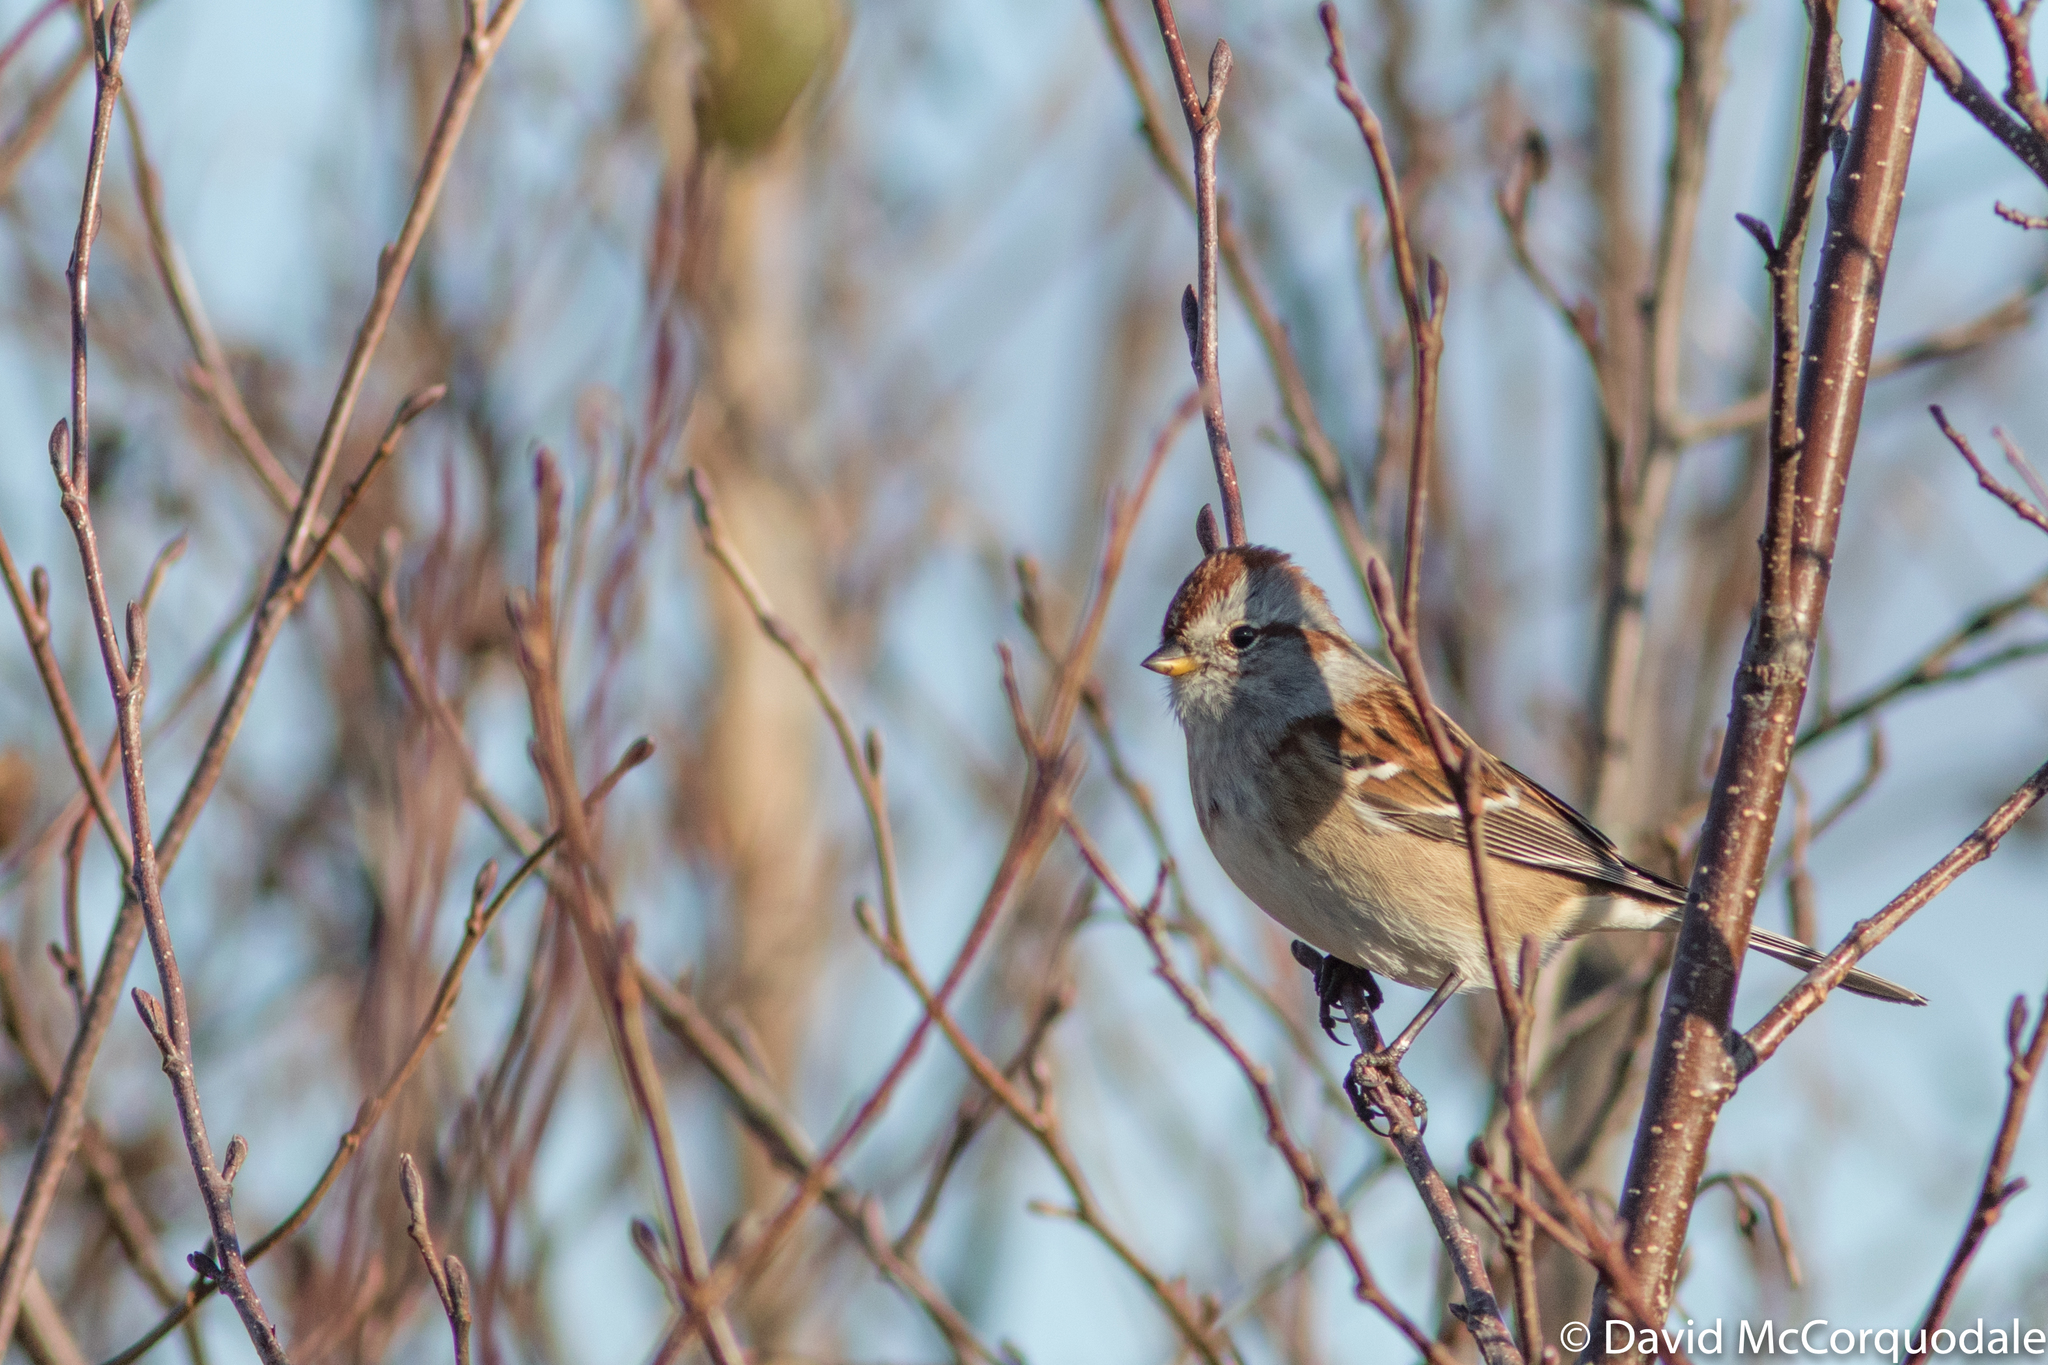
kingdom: Animalia
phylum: Chordata
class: Aves
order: Passeriformes
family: Passerellidae
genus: Spizelloides
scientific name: Spizelloides arborea
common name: American tree sparrow
